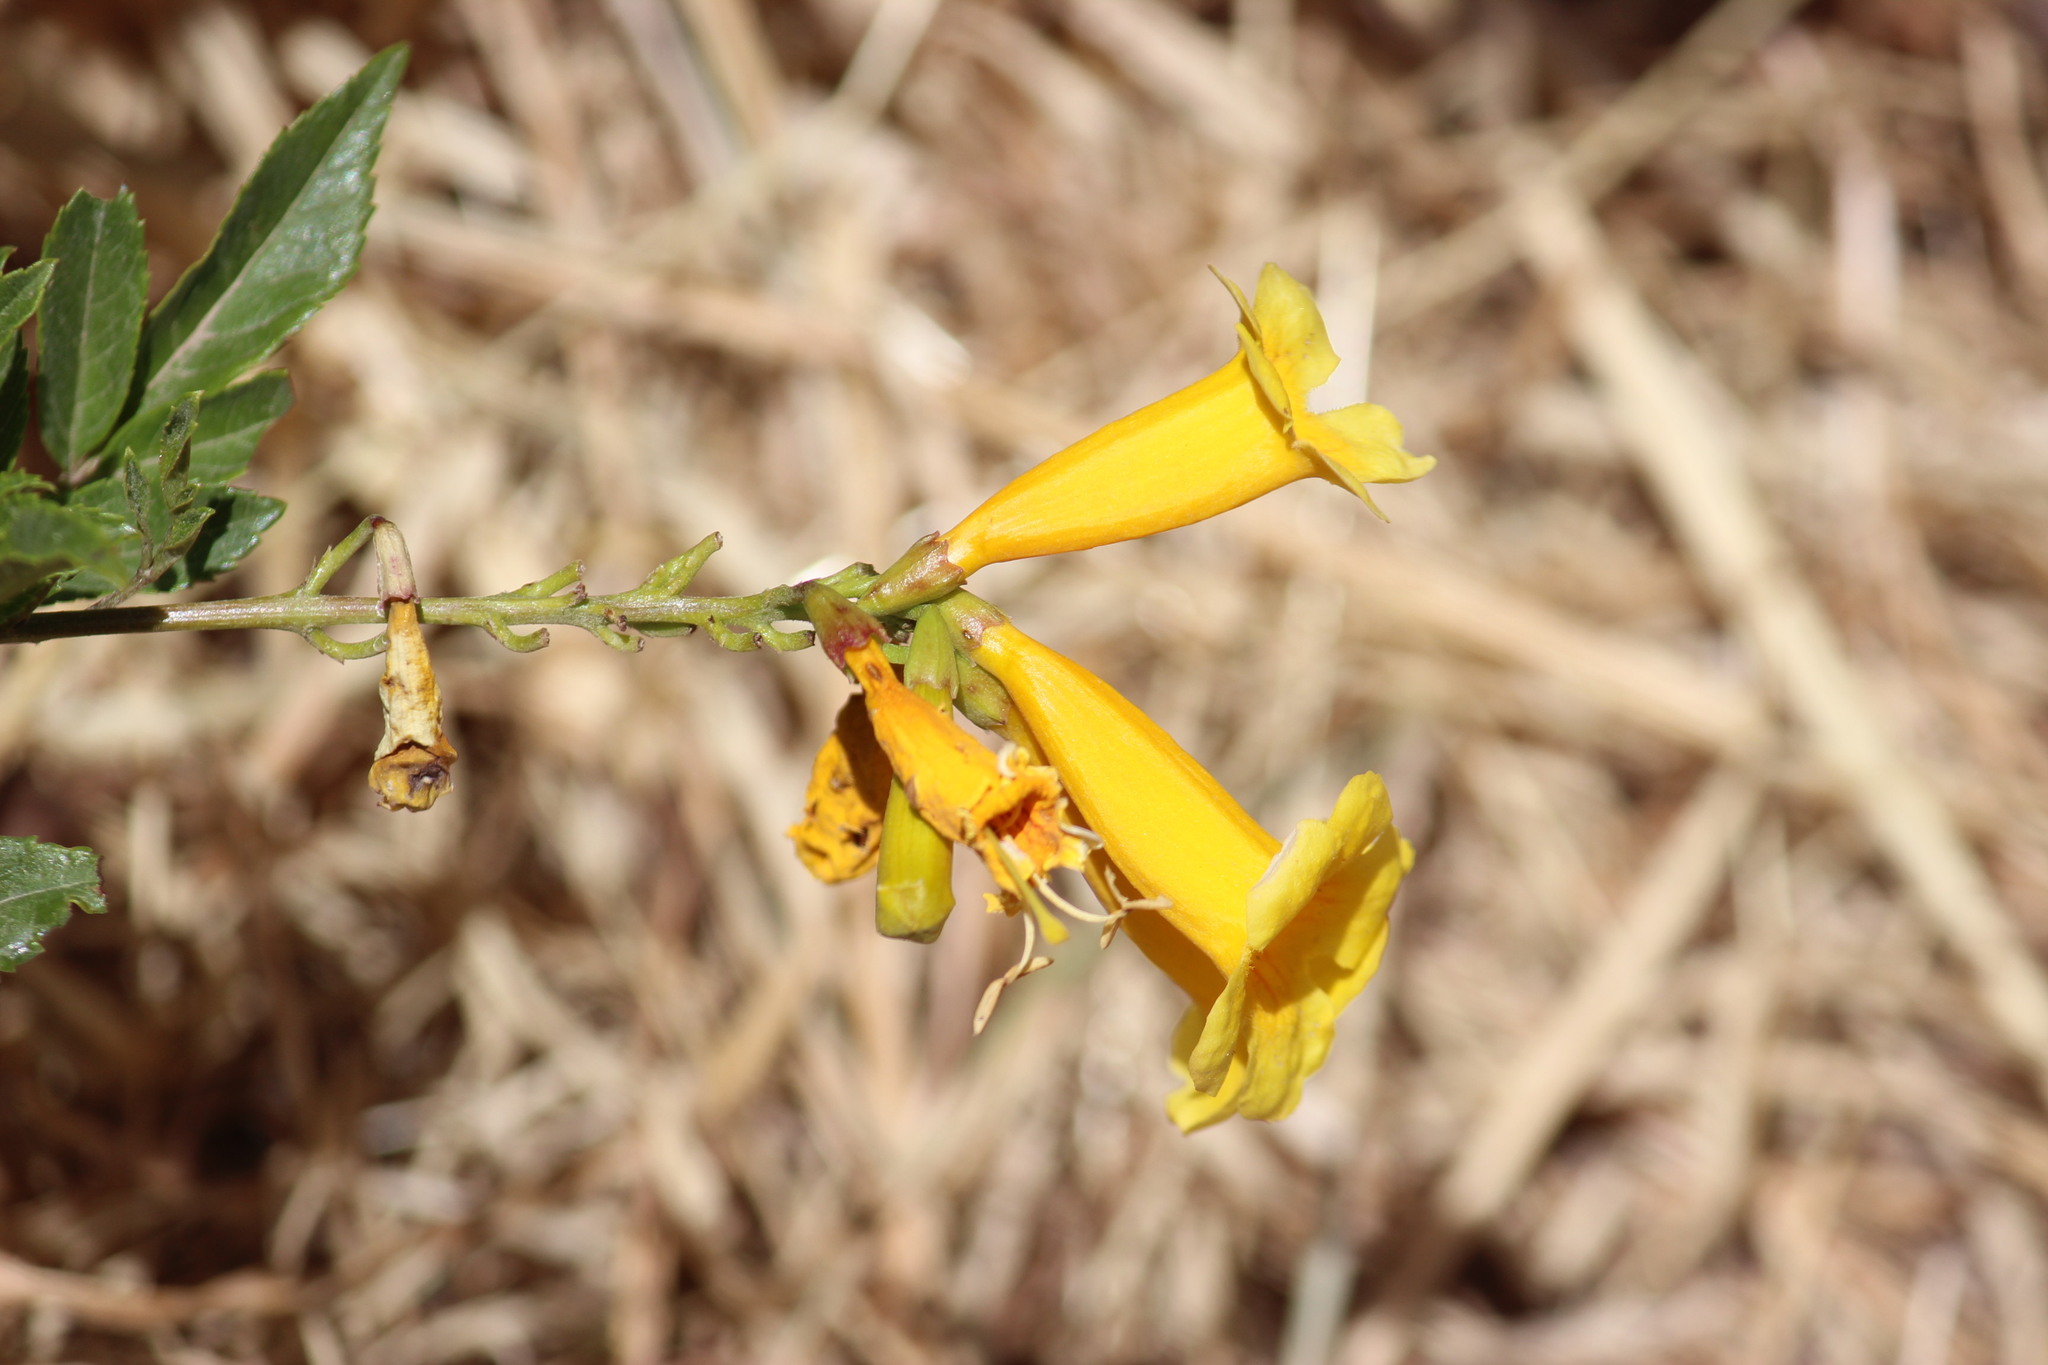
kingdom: Plantae
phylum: Tracheophyta
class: Magnoliopsida
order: Lamiales
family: Bignoniaceae
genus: Tecoma
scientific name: Tecoma stans
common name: Yellow trumpetbush
